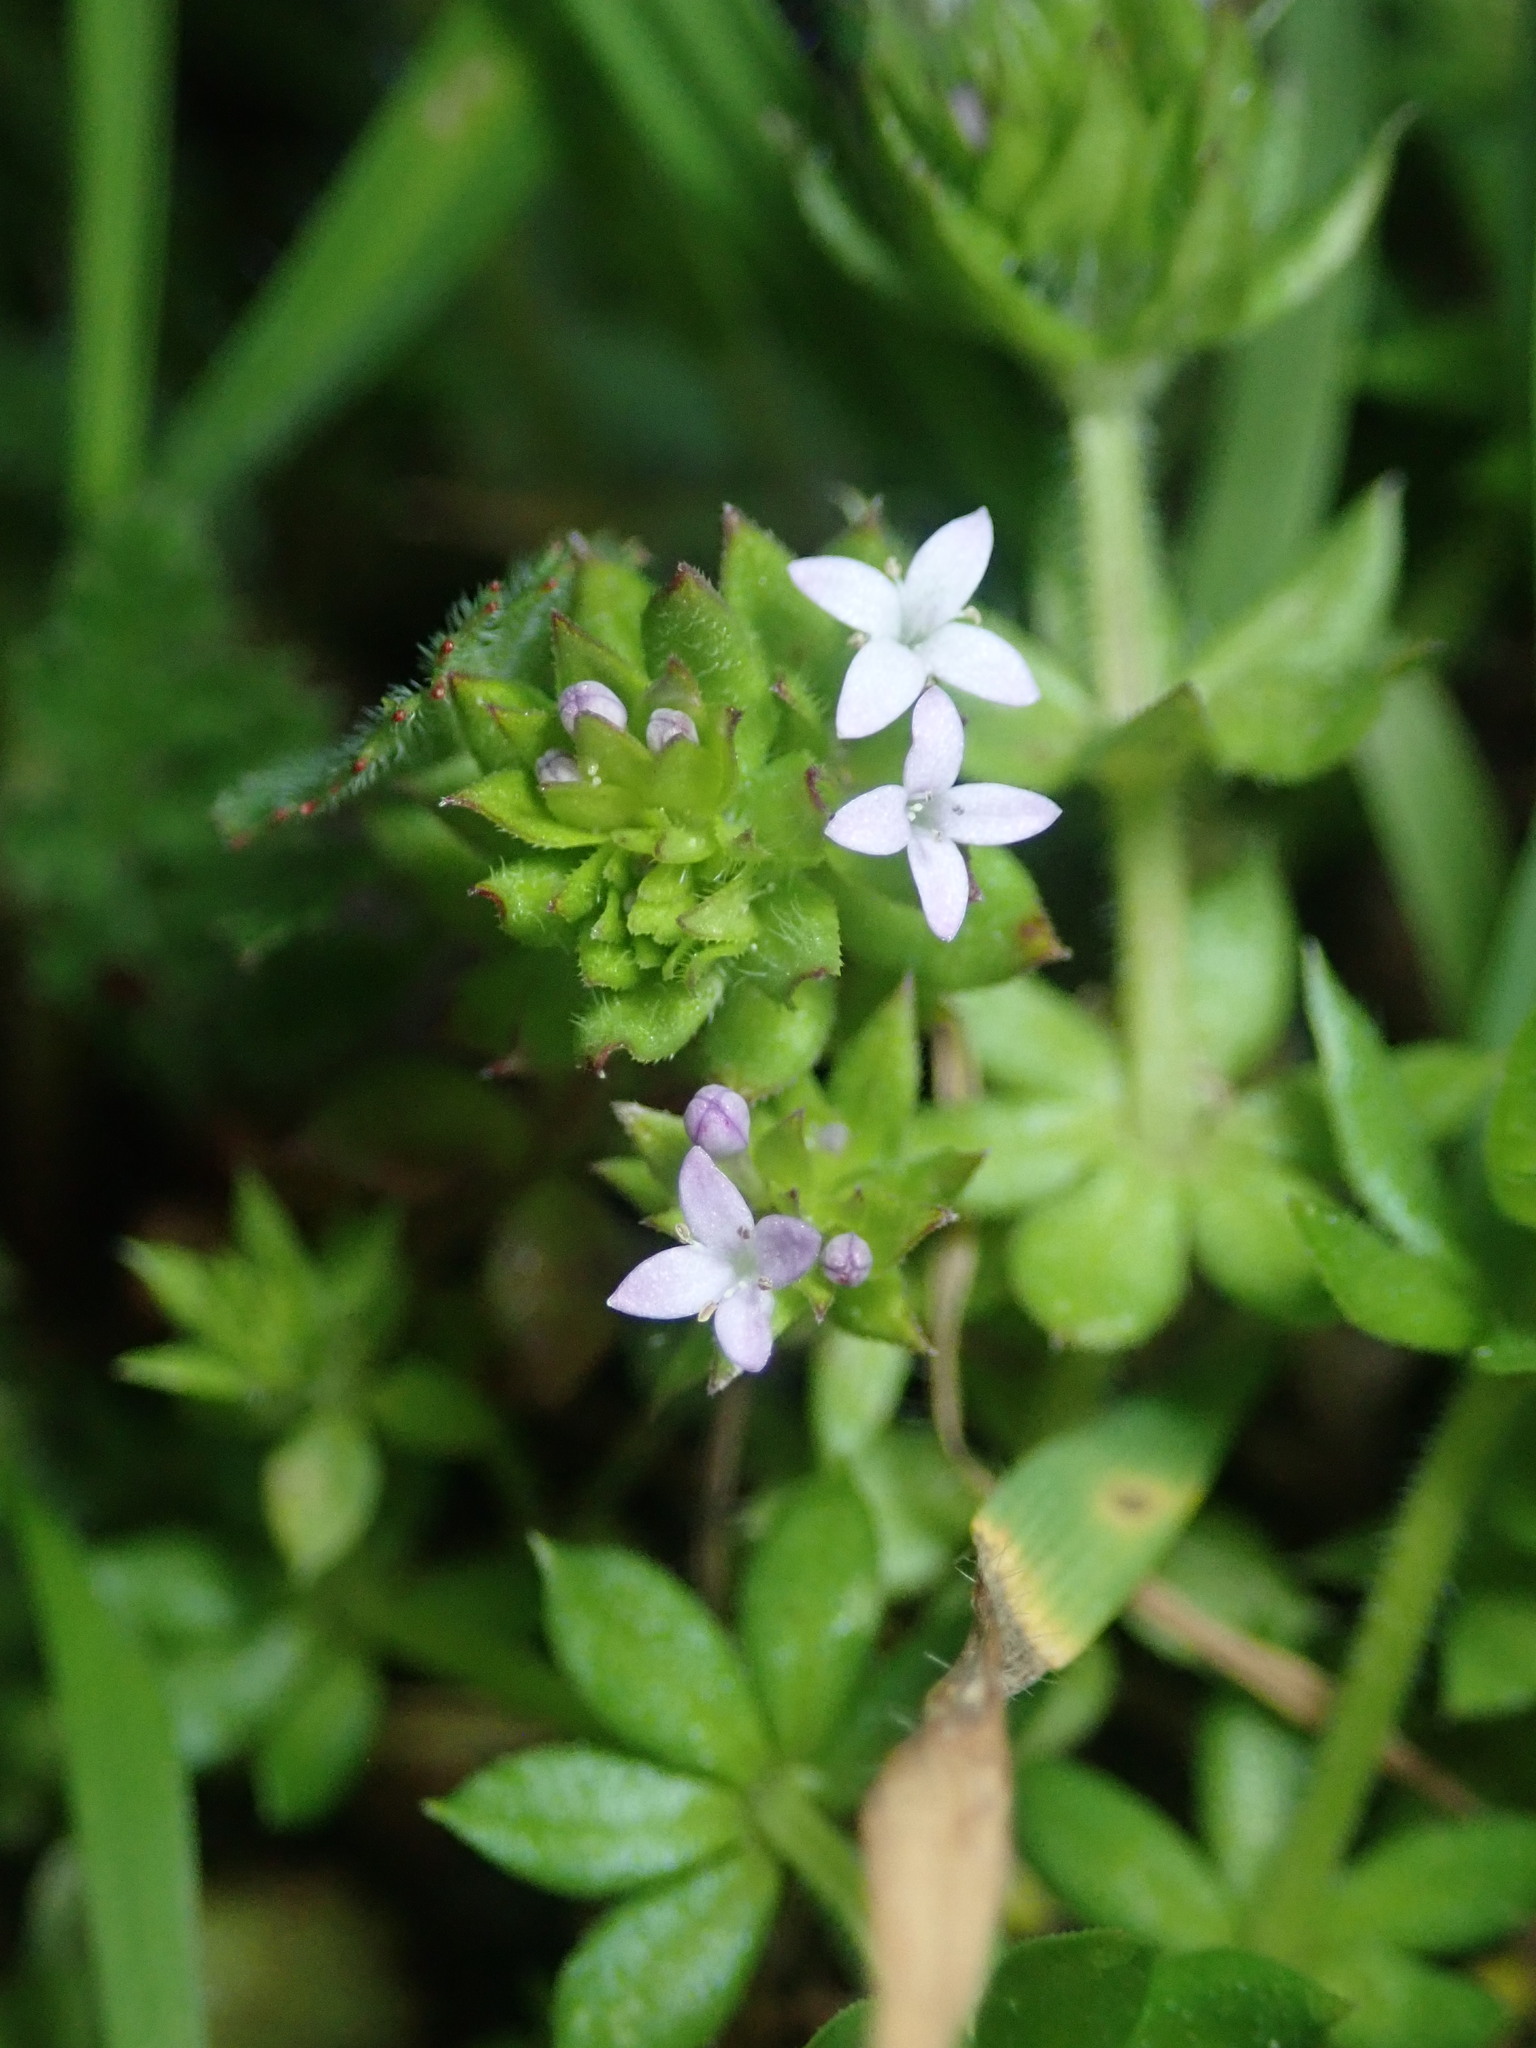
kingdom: Plantae
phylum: Tracheophyta
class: Magnoliopsida
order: Gentianales
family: Rubiaceae
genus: Sherardia
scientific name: Sherardia arvensis
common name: Field madder
